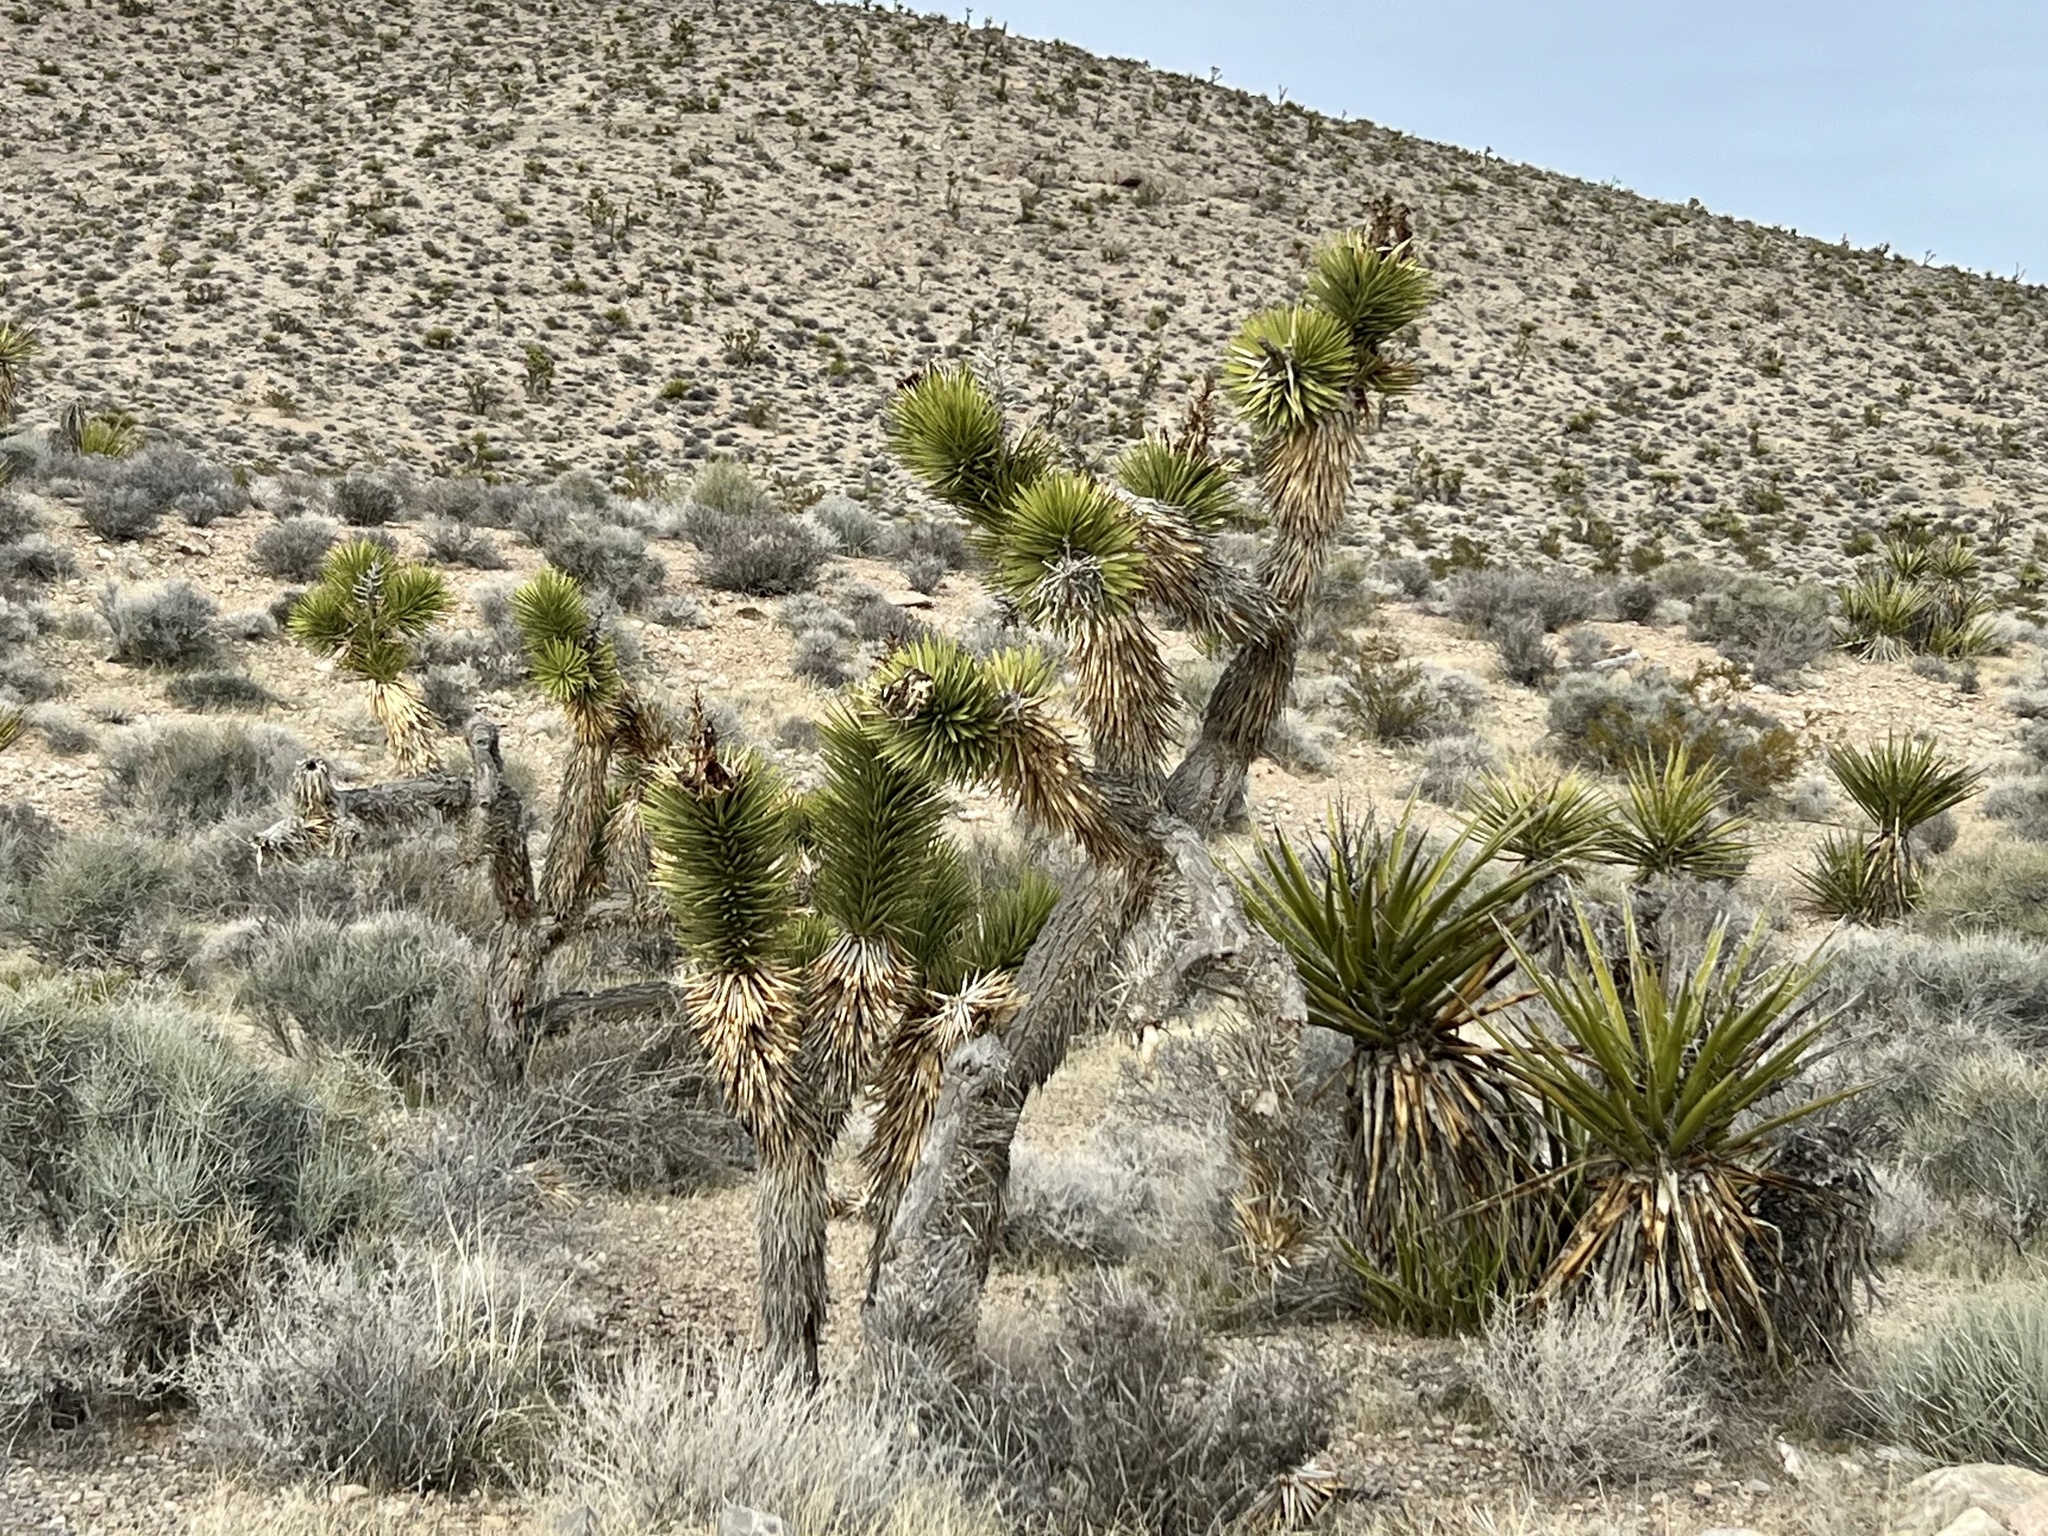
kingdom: Plantae
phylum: Tracheophyta
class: Liliopsida
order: Asparagales
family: Asparagaceae
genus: Yucca
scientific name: Yucca brevifolia
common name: Joshua tree
